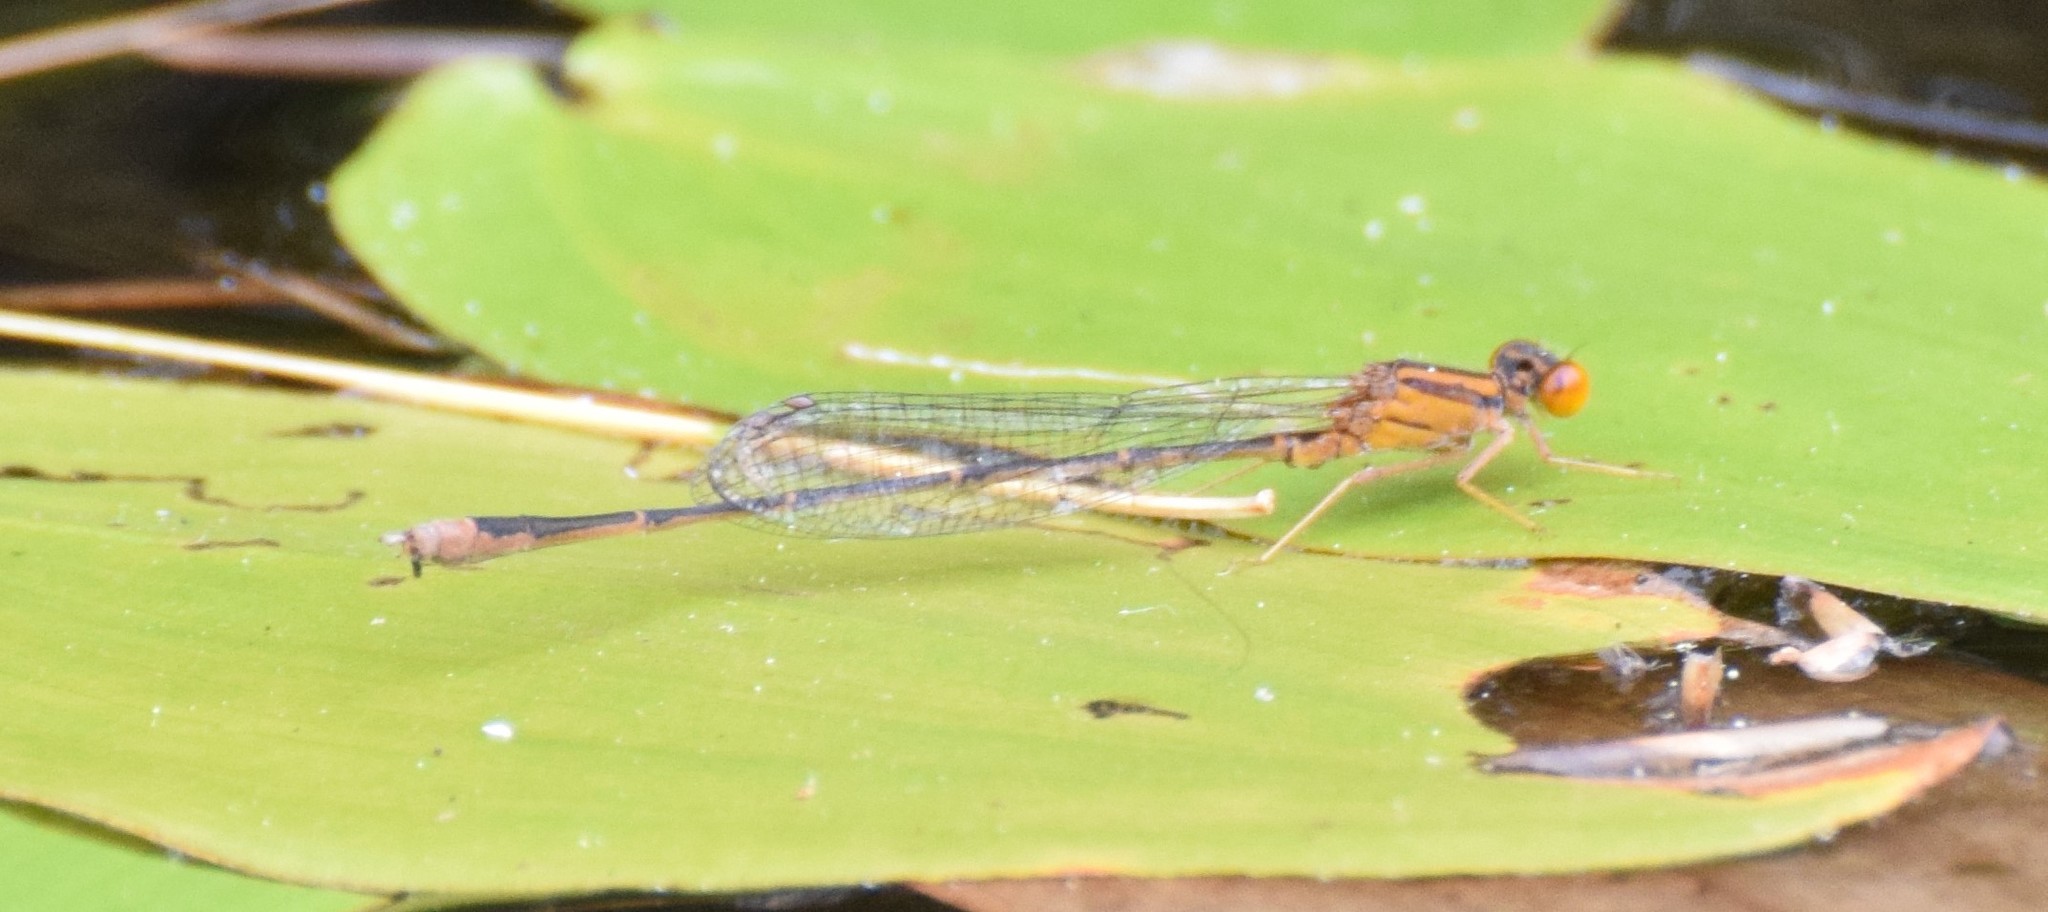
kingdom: Animalia
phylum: Arthropoda
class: Insecta
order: Odonata
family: Coenagrionidae
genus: Enallagma
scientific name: Enallagma signatum
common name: Orange bluet
